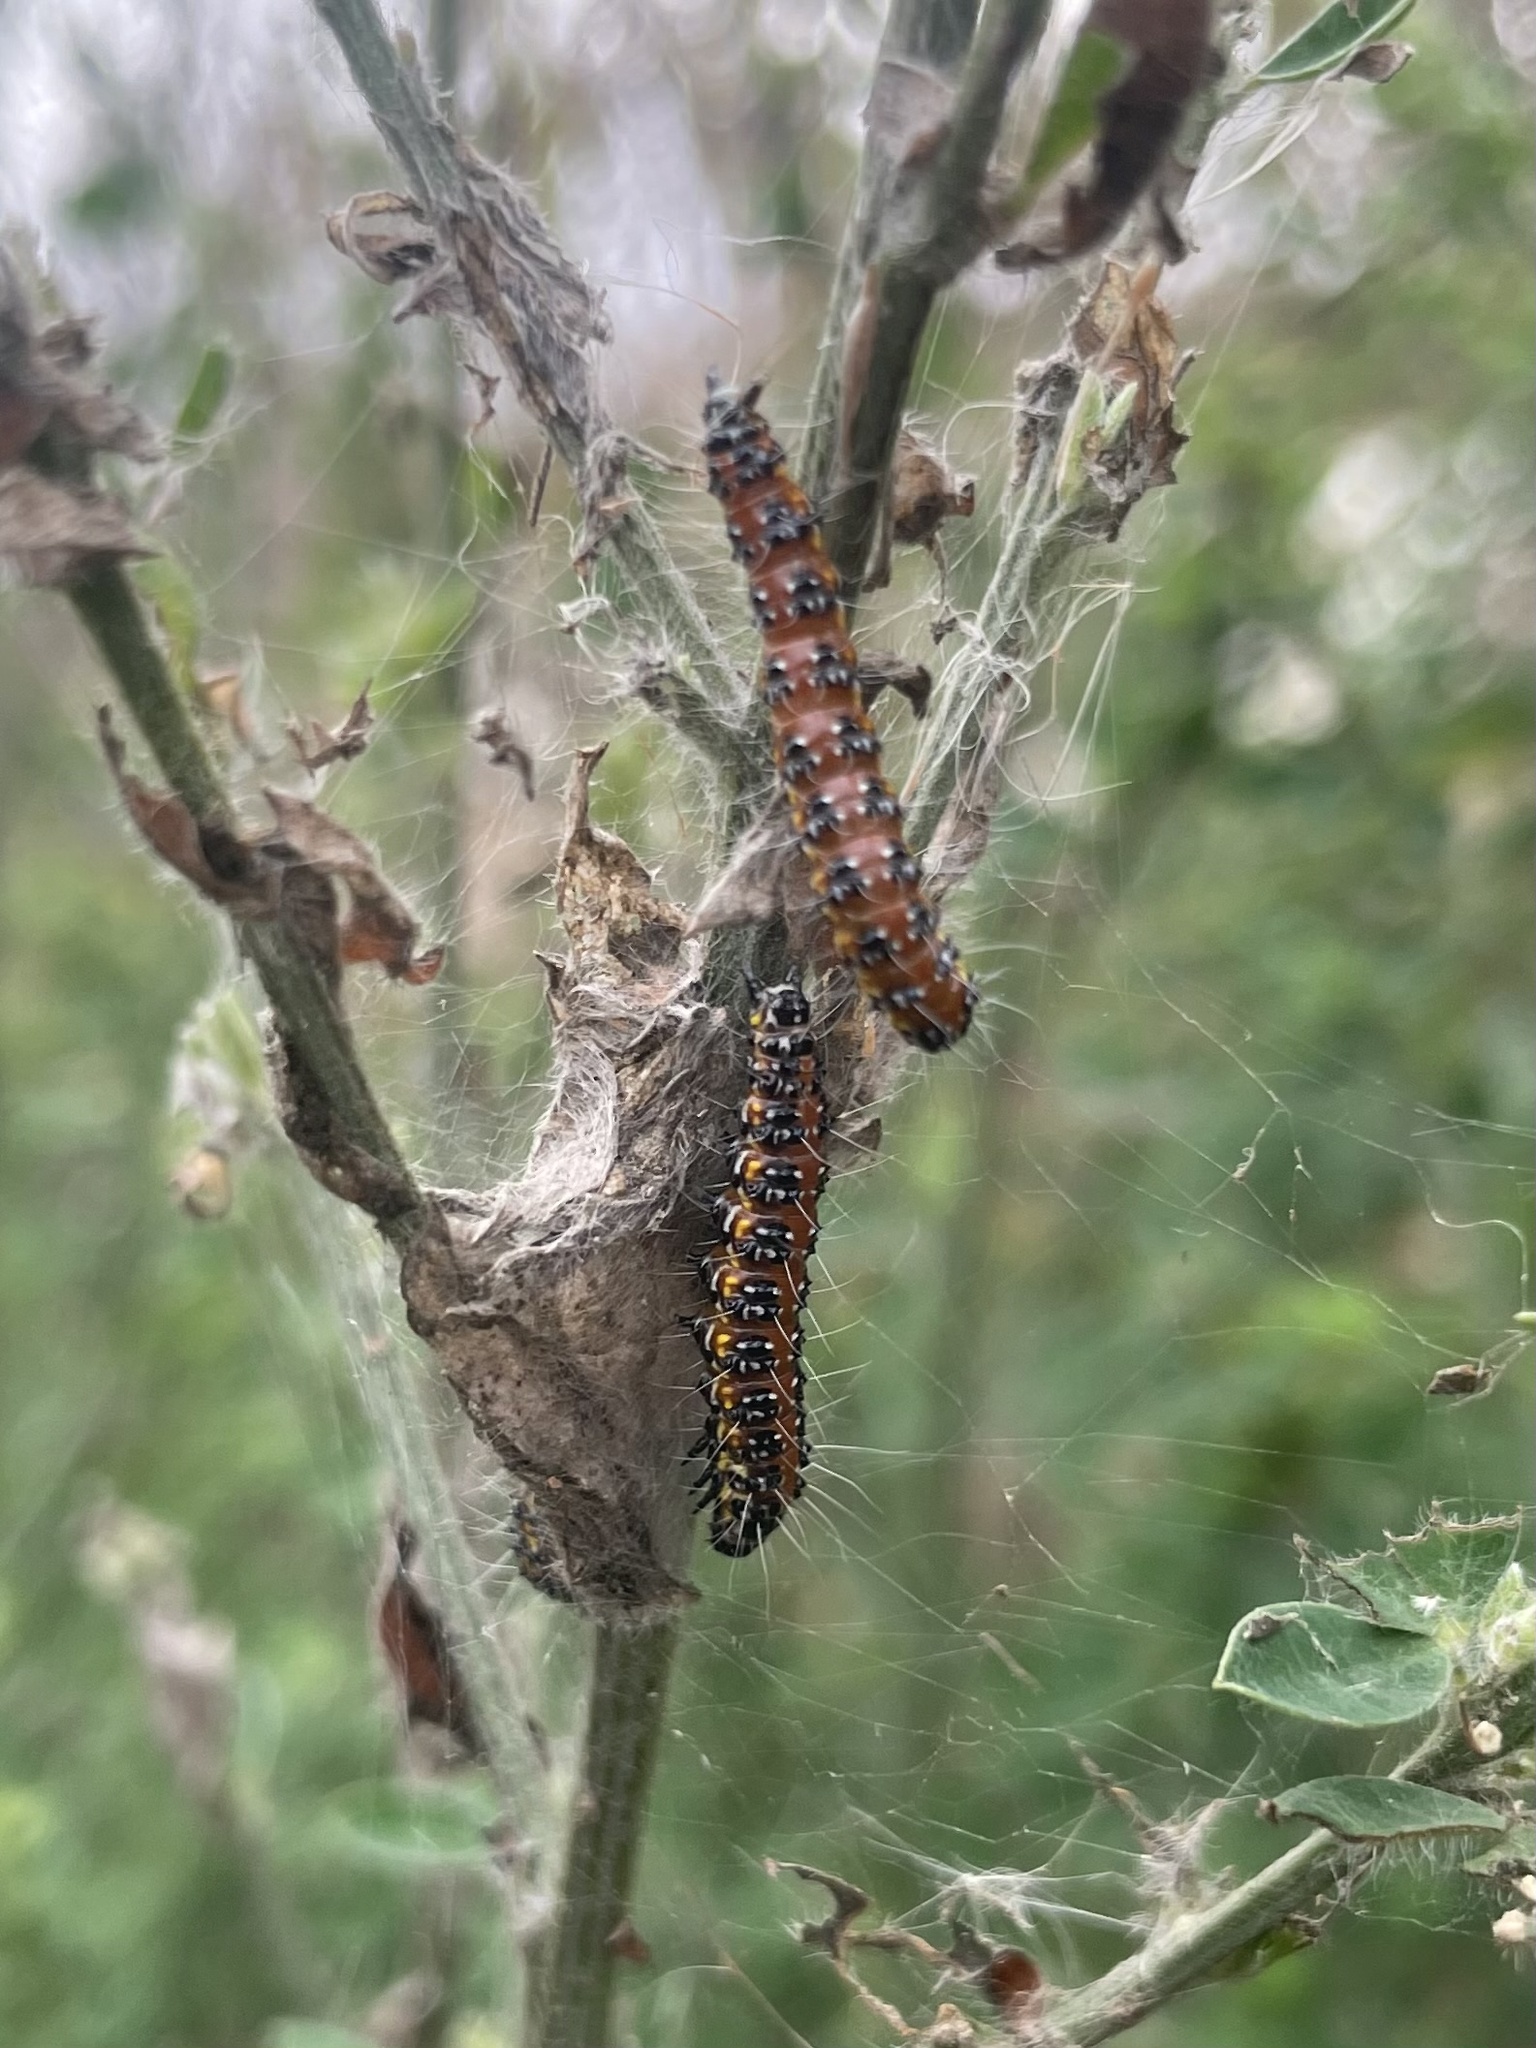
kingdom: Animalia
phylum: Arthropoda
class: Insecta
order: Lepidoptera
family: Crambidae
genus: Uresiphita
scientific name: Uresiphita reversalis
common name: Genista broom moth
